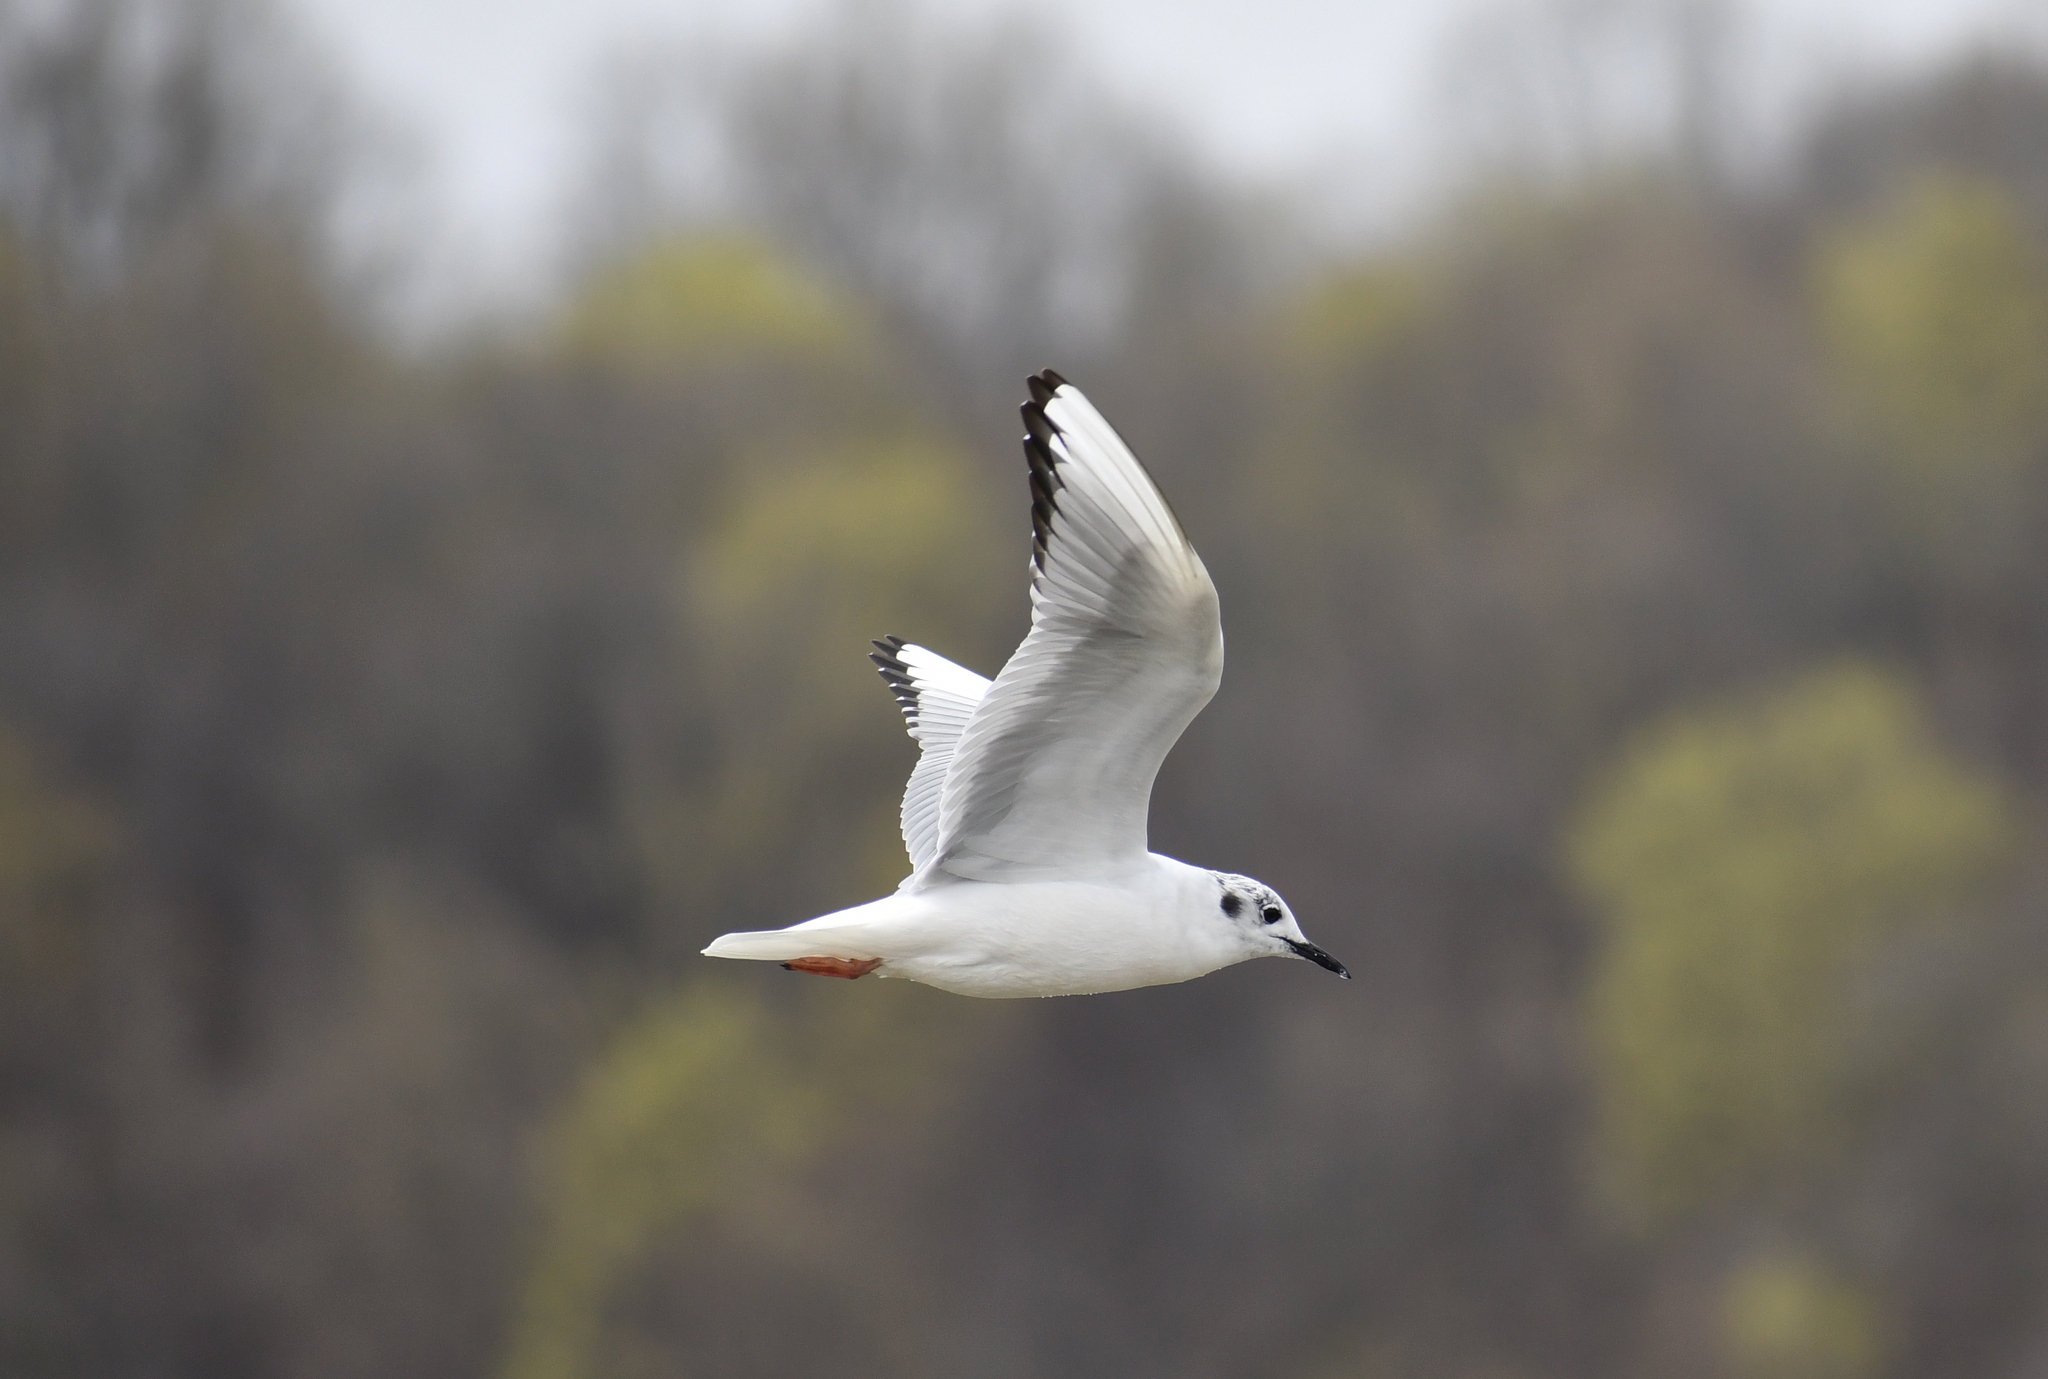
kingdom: Animalia
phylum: Chordata
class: Aves
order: Charadriiformes
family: Laridae
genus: Chroicocephalus
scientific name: Chroicocephalus philadelphia
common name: Bonaparte's gull
